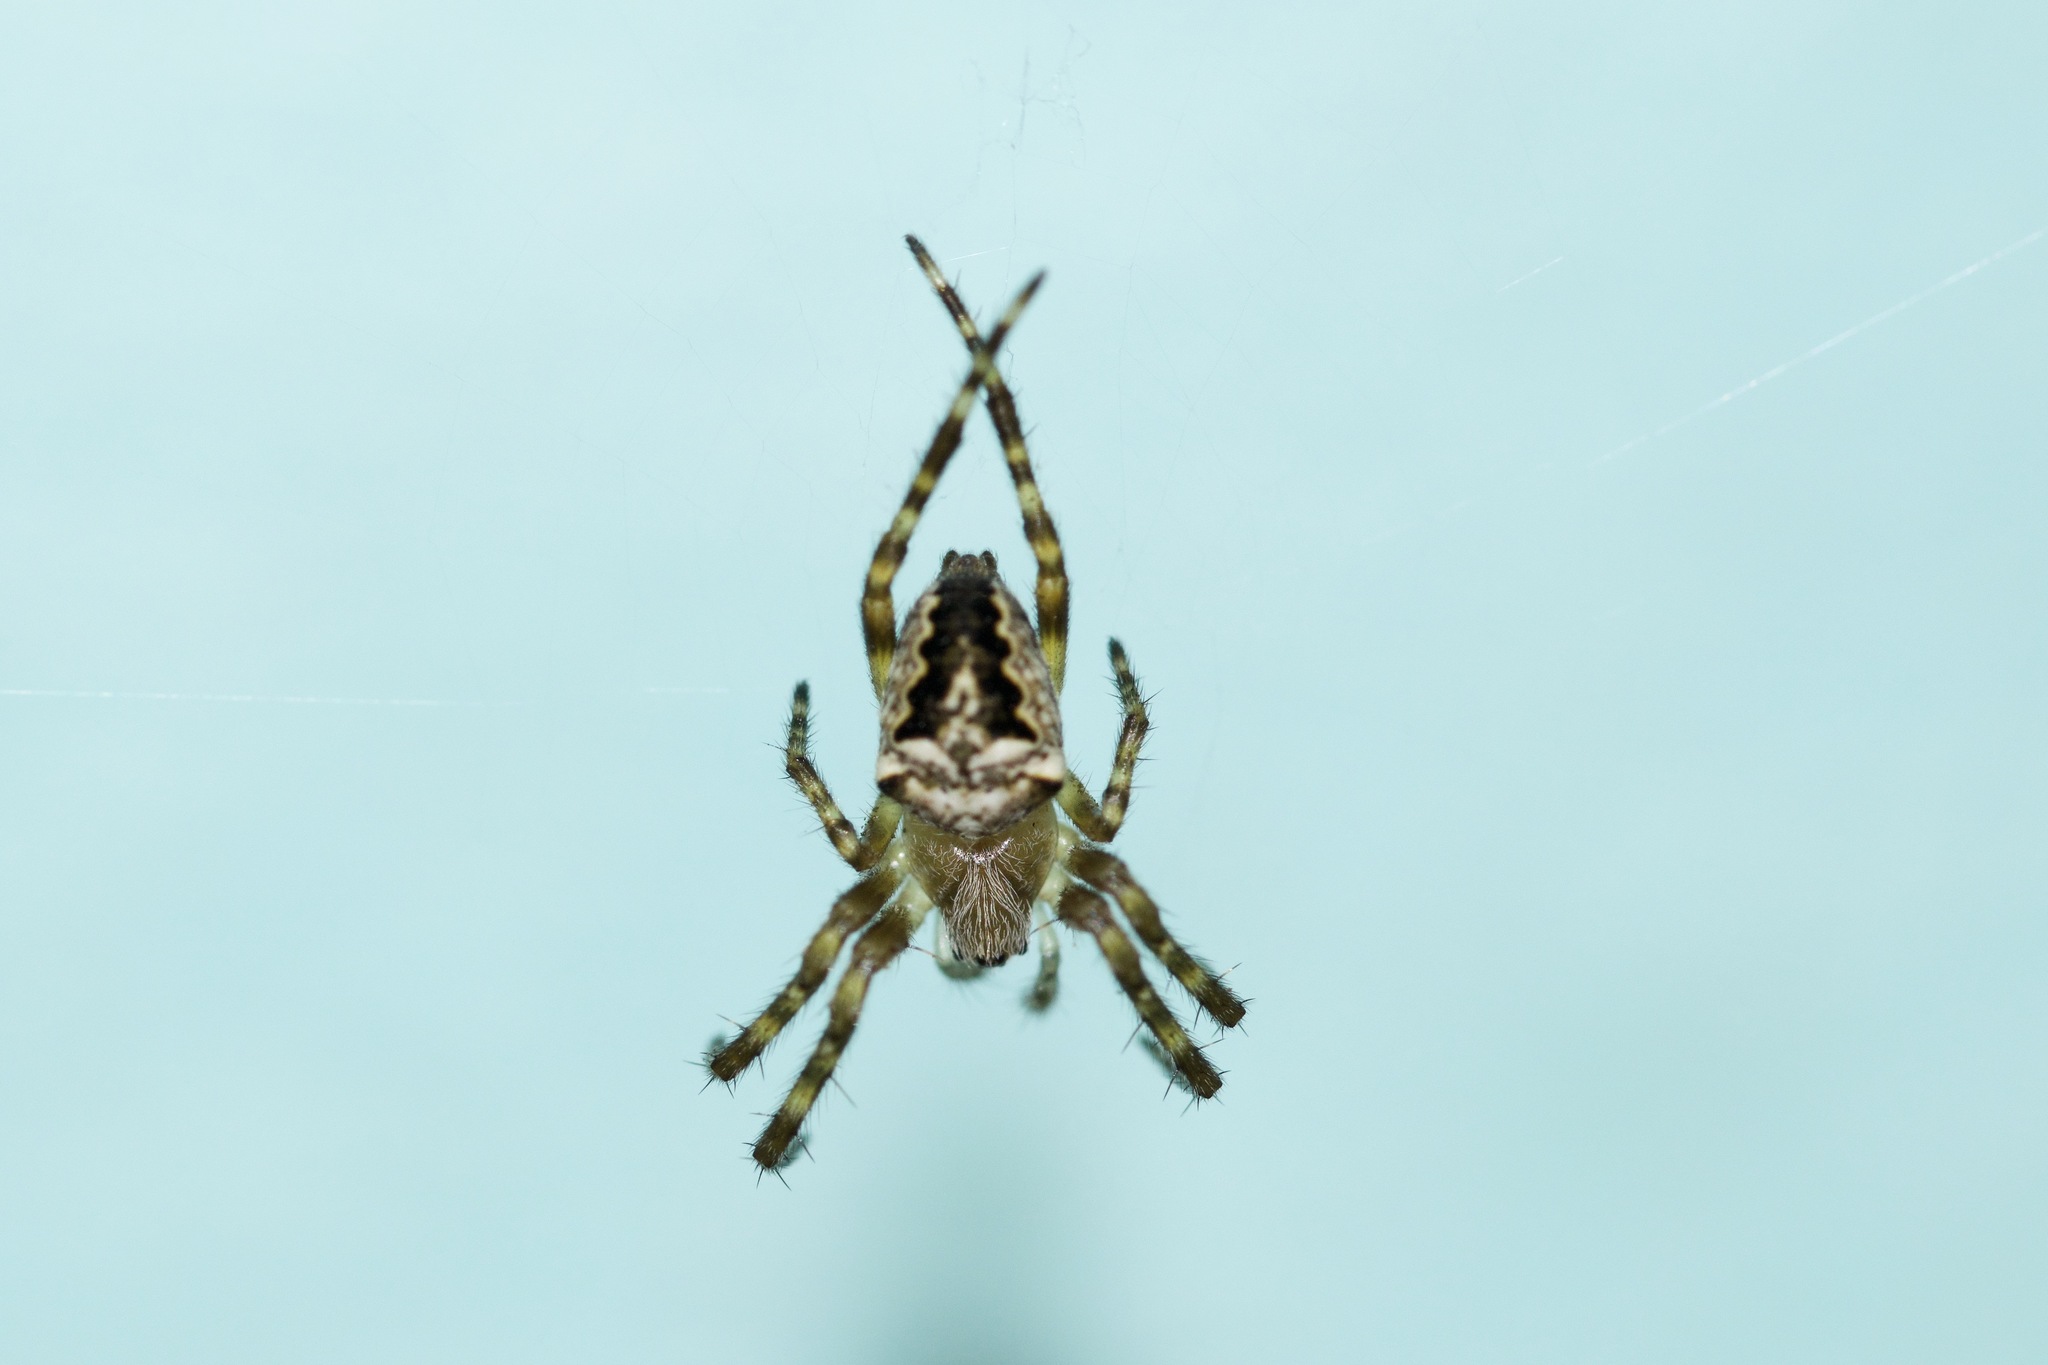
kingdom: Animalia
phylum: Arthropoda
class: Arachnida
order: Araneae
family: Araneidae
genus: Araneus
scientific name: Araneus nordmanni
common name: Nordmann's orbweaver
